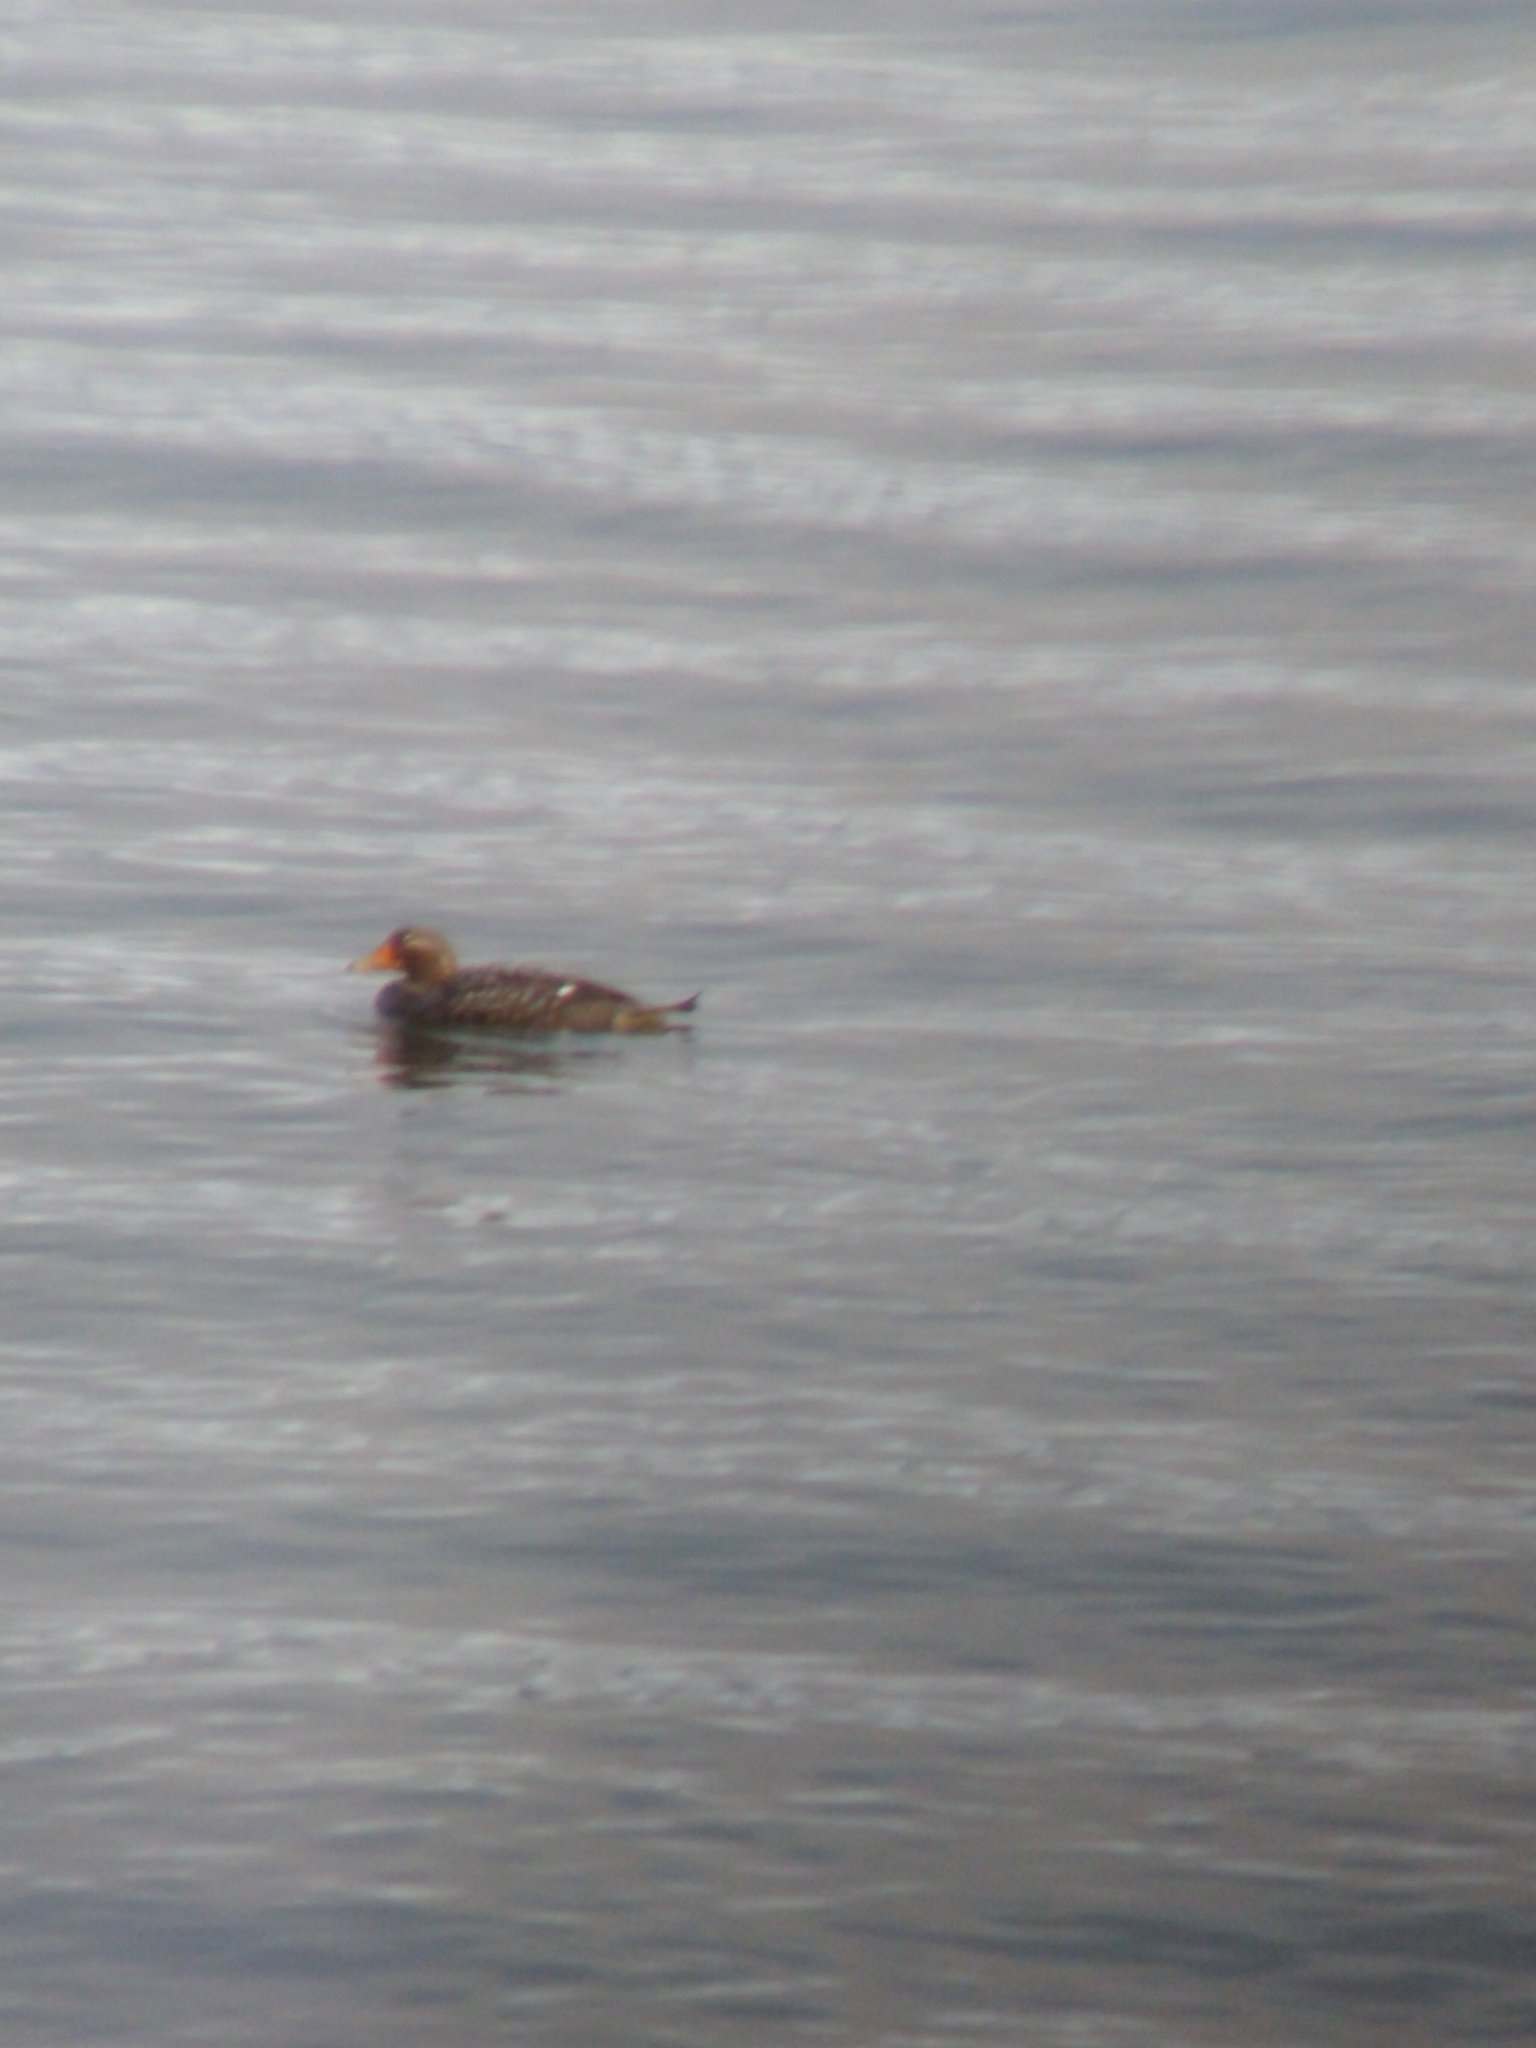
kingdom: Animalia
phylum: Chordata
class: Aves
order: Anseriformes
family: Anatidae
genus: Tachyeres
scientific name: Tachyeres patachonicus
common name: Flying steamer duck
